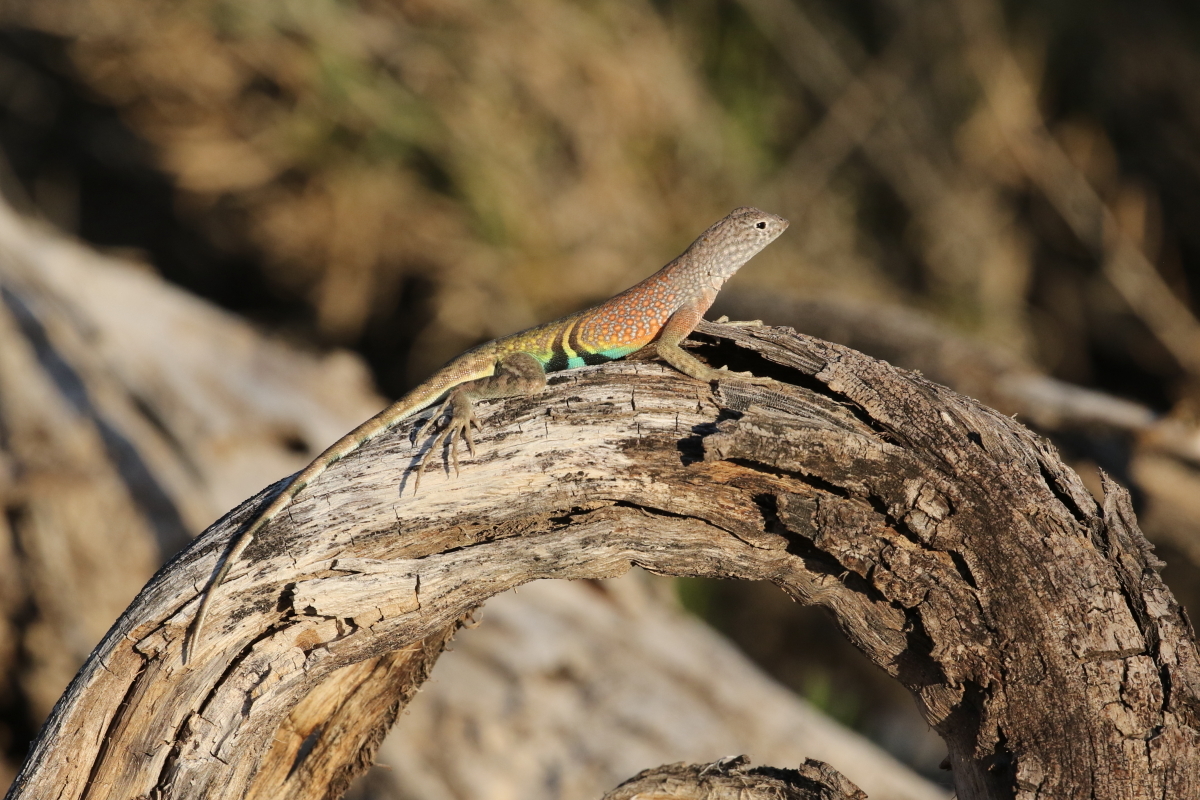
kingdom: Animalia
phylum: Chordata
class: Squamata
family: Phrynosomatidae
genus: Cophosaurus
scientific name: Cophosaurus texanus
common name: Greater earless lizard
